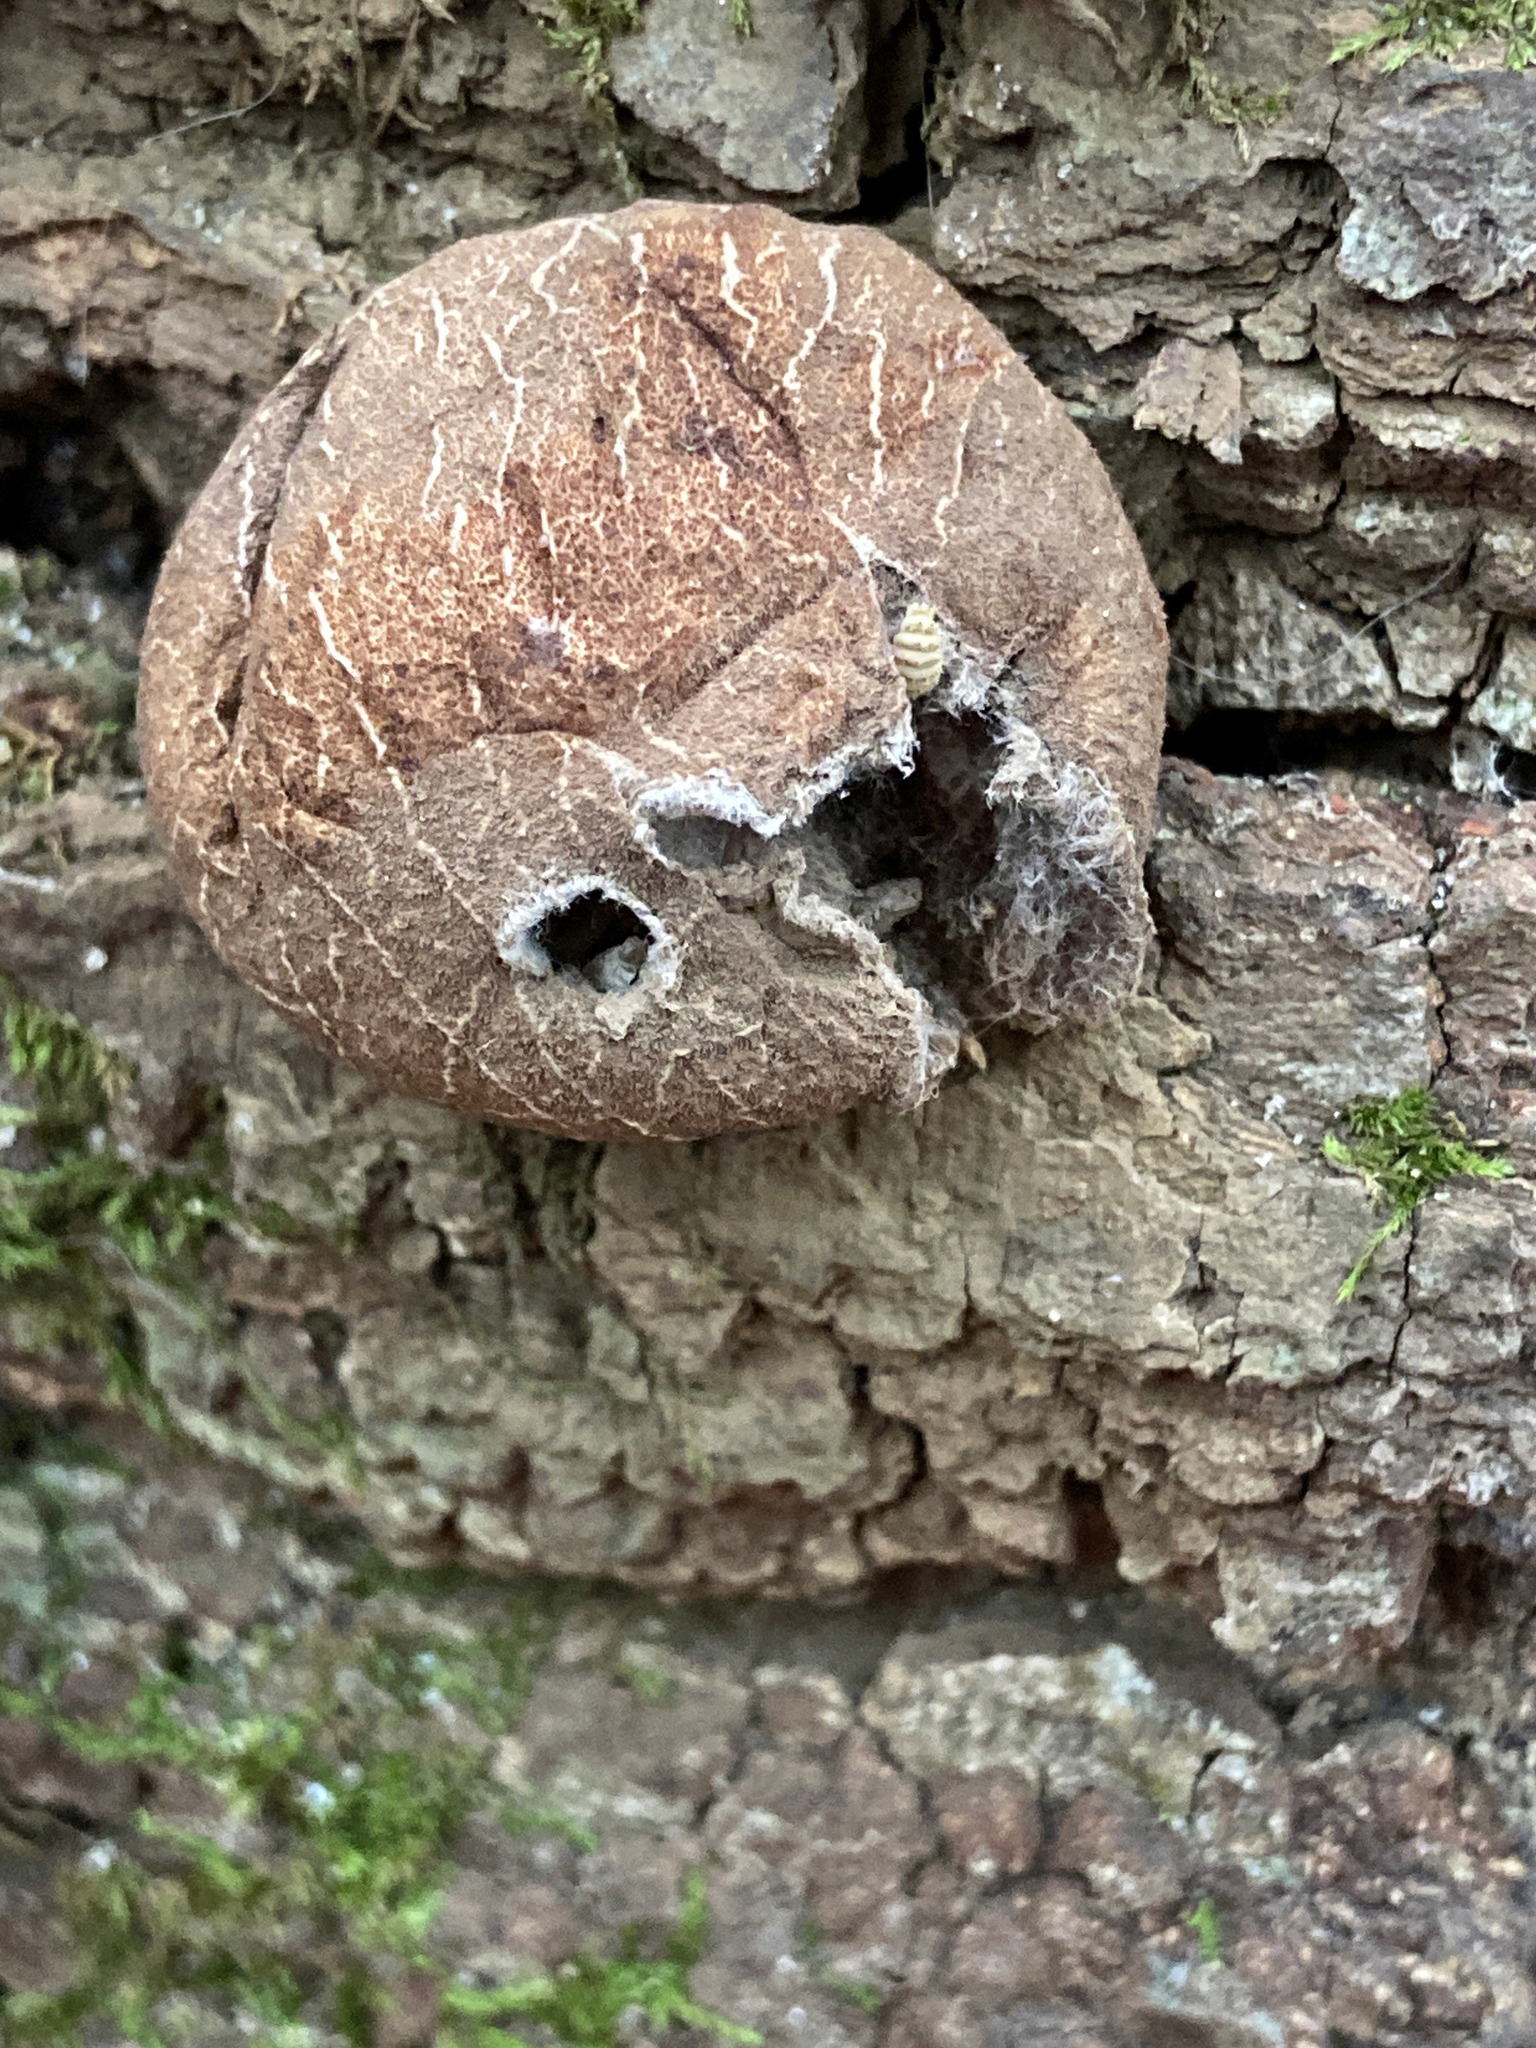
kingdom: Fungi
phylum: Basidiomycota
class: Agaricomycetes
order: Agaricales
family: Lycoperdaceae
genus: Apioperdon
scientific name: Apioperdon pyriforme
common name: Pear-shaped puffball
